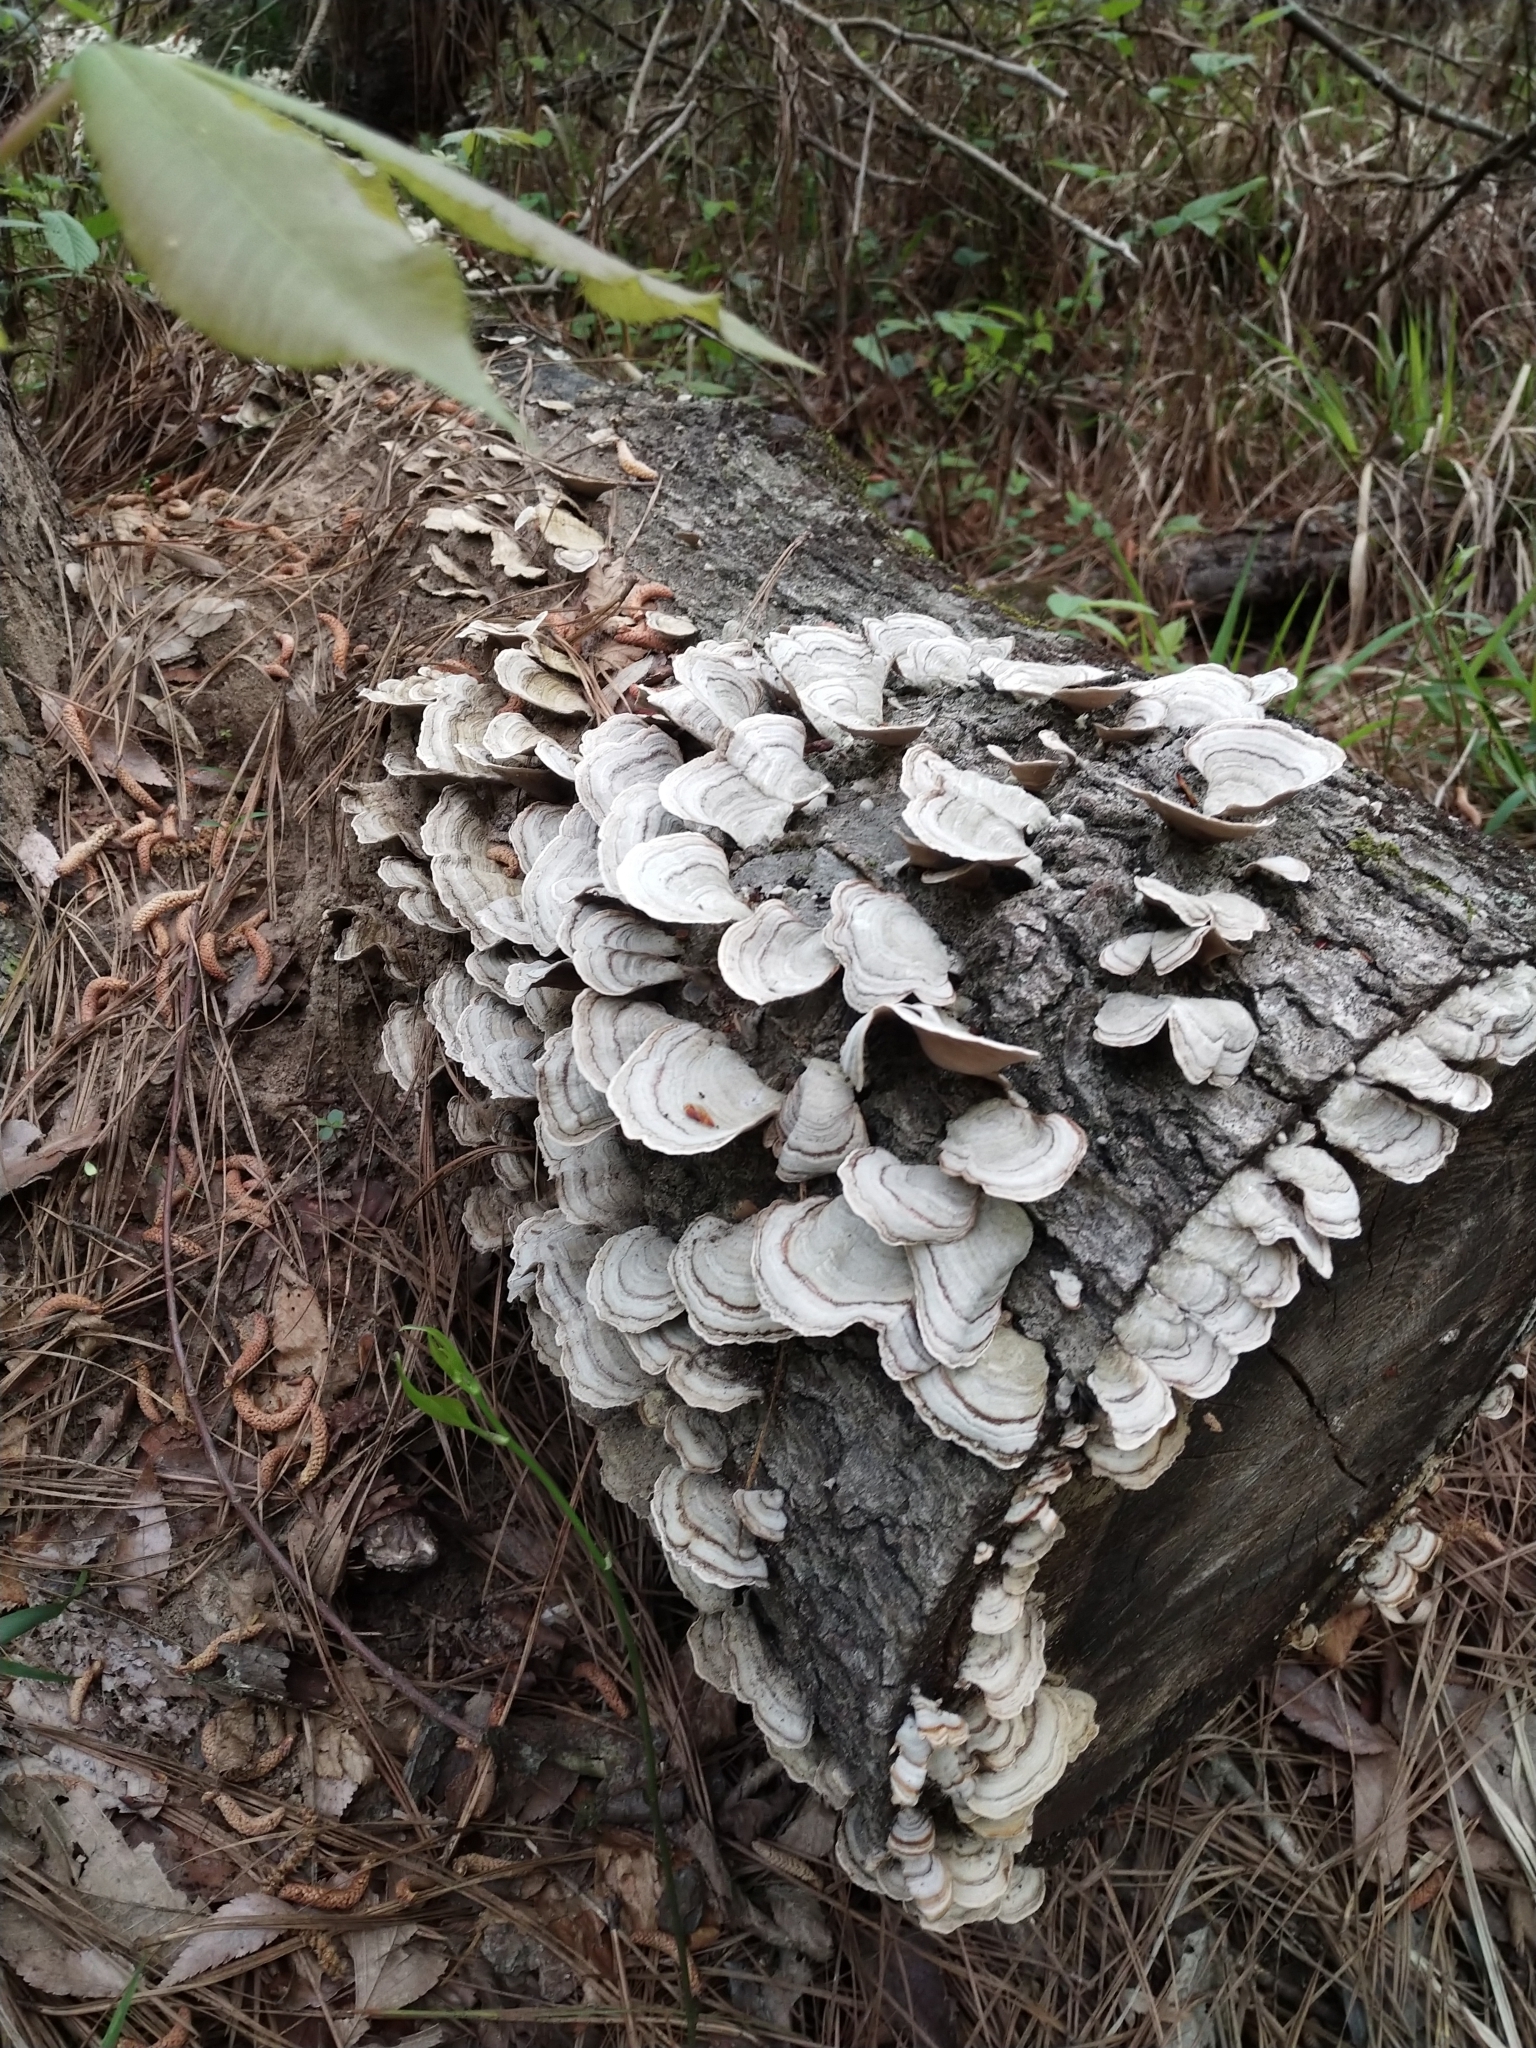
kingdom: Fungi
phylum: Basidiomycota
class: Agaricomycetes
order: Russulales
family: Stereaceae
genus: Stereum
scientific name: Stereum ostrea
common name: False turkeytail
